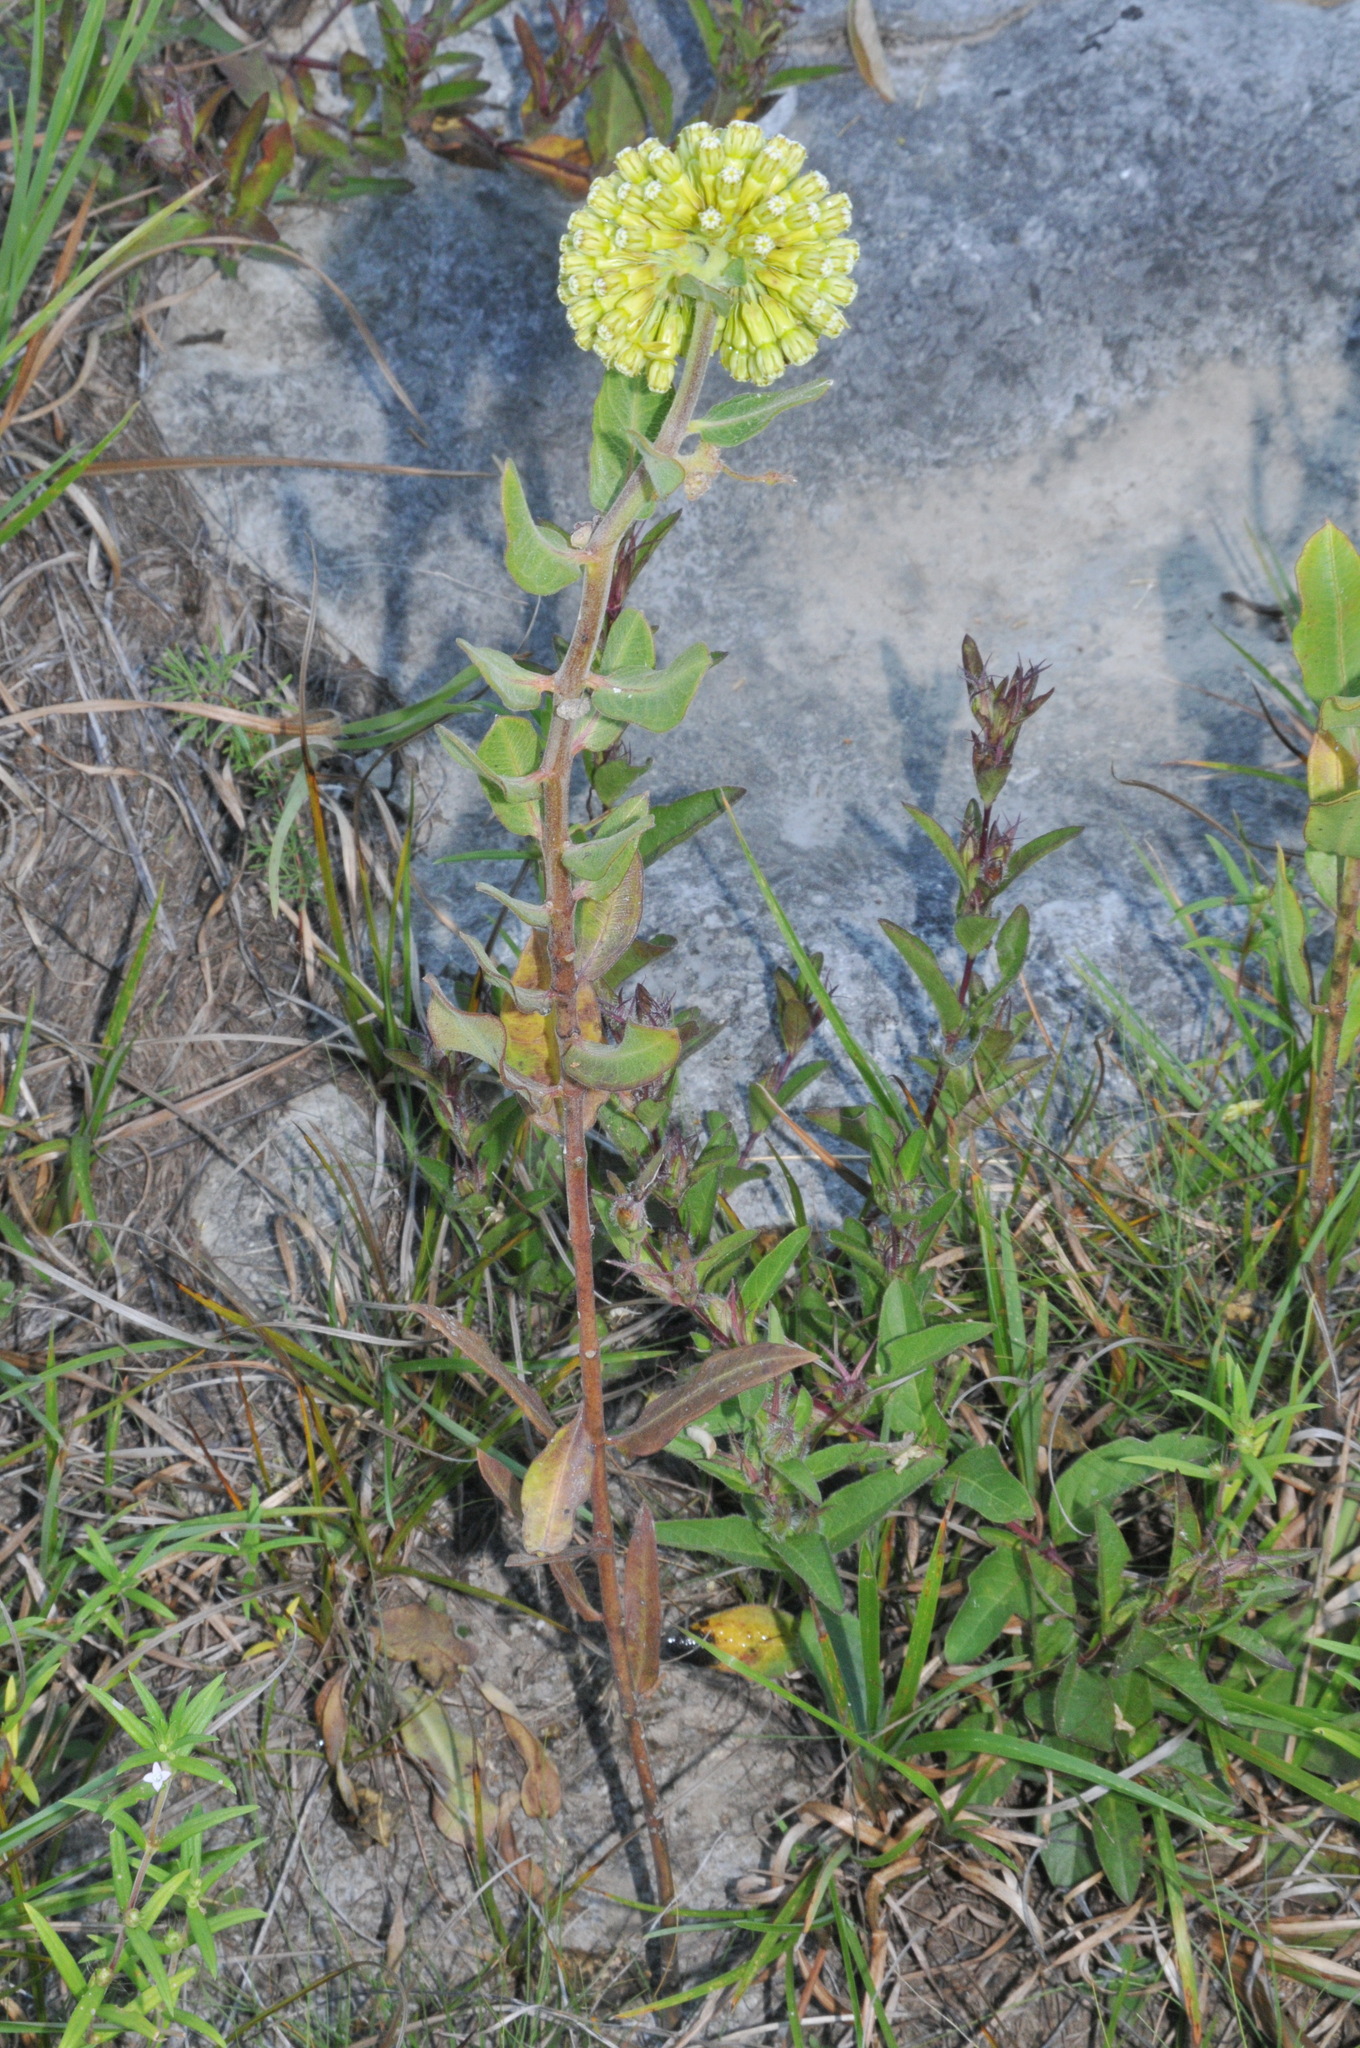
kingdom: Plantae
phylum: Tracheophyta
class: Magnoliopsida
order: Gentianales
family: Apocynaceae
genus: Asclepias
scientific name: Asclepias viridiflora
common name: Green comet milkweed
